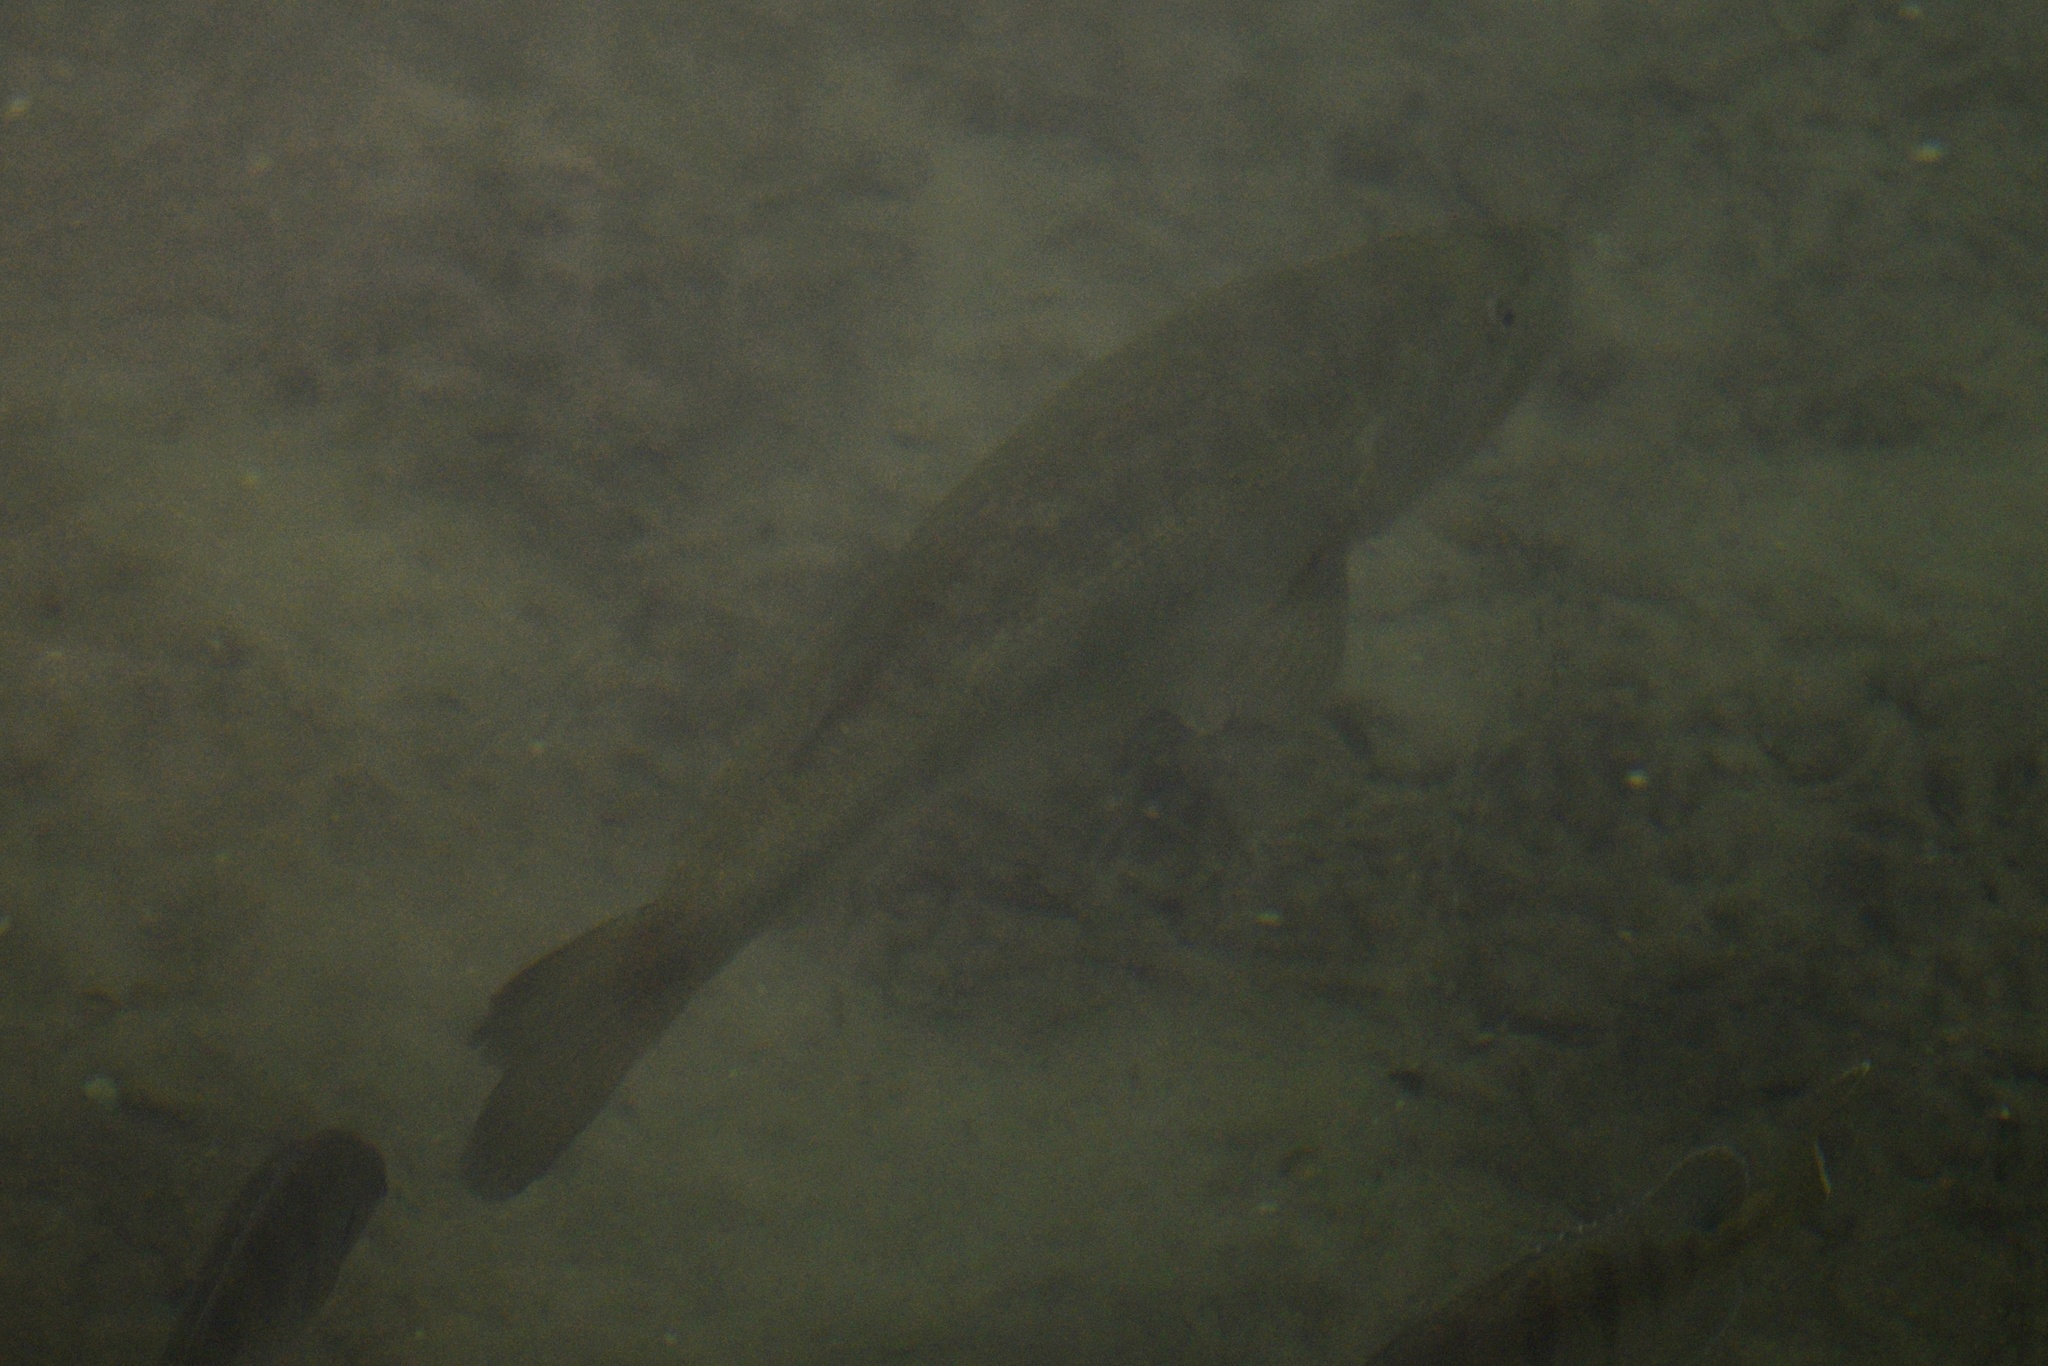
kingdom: Animalia
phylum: Chordata
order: Perciformes
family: Centrarchidae
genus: Micropterus
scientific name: Micropterus salmoides
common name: Largemouth bass
